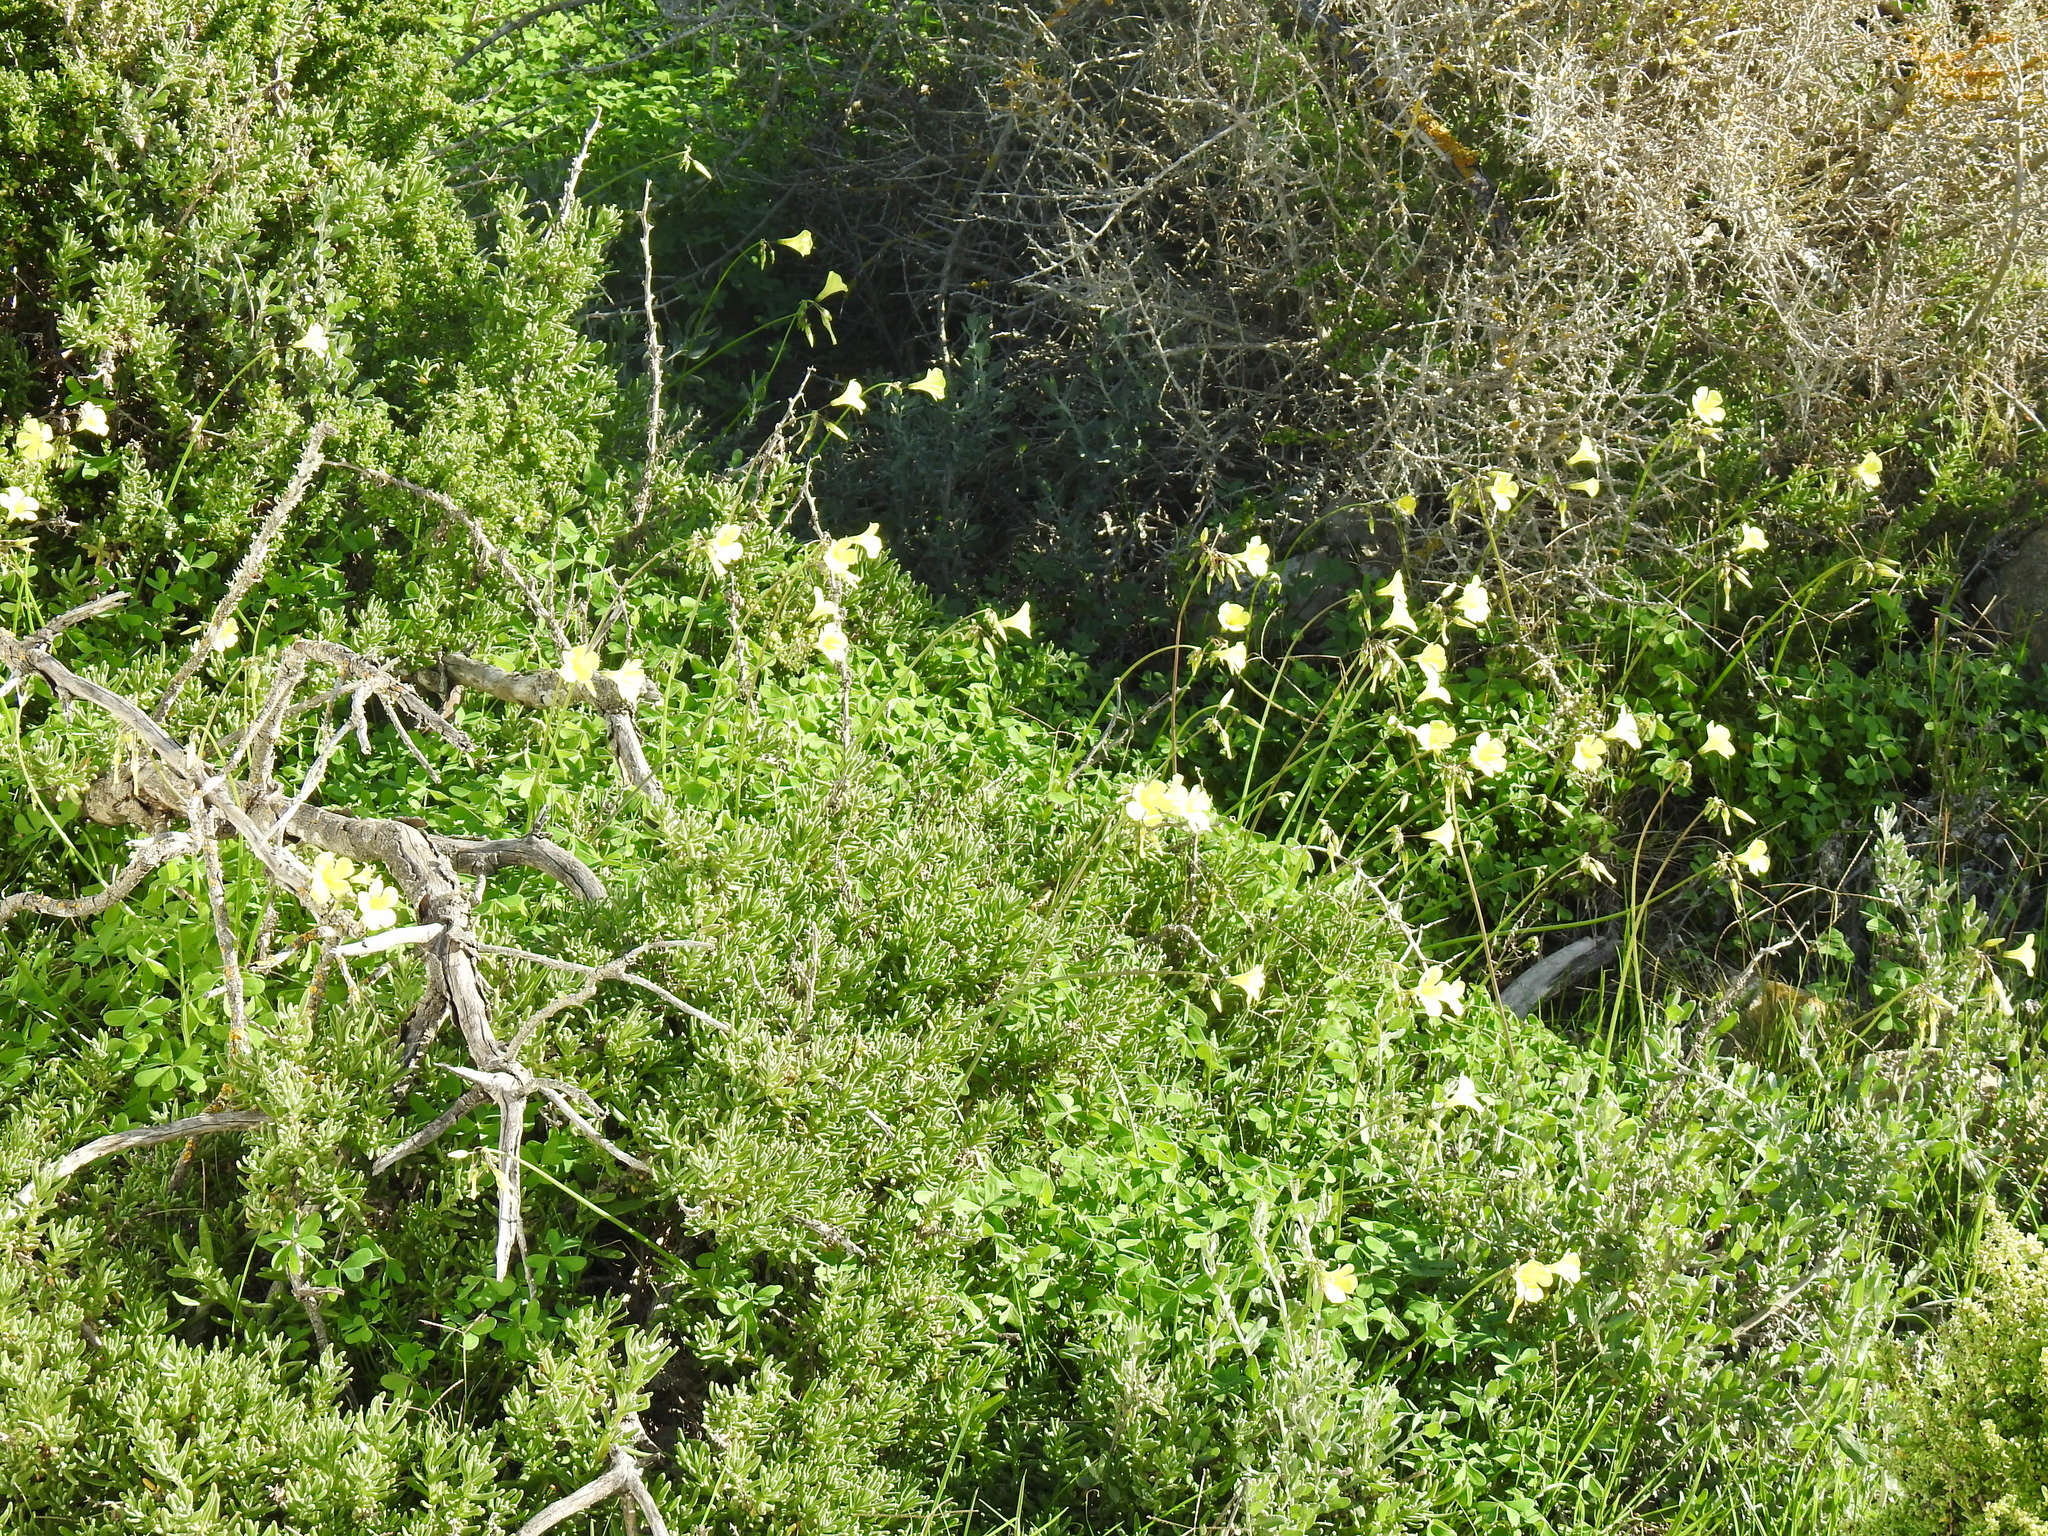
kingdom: Plantae
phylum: Tracheophyta
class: Magnoliopsida
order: Oxalidales
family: Oxalidaceae
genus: Oxalis
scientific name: Oxalis pes-caprae
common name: Bermuda-buttercup
